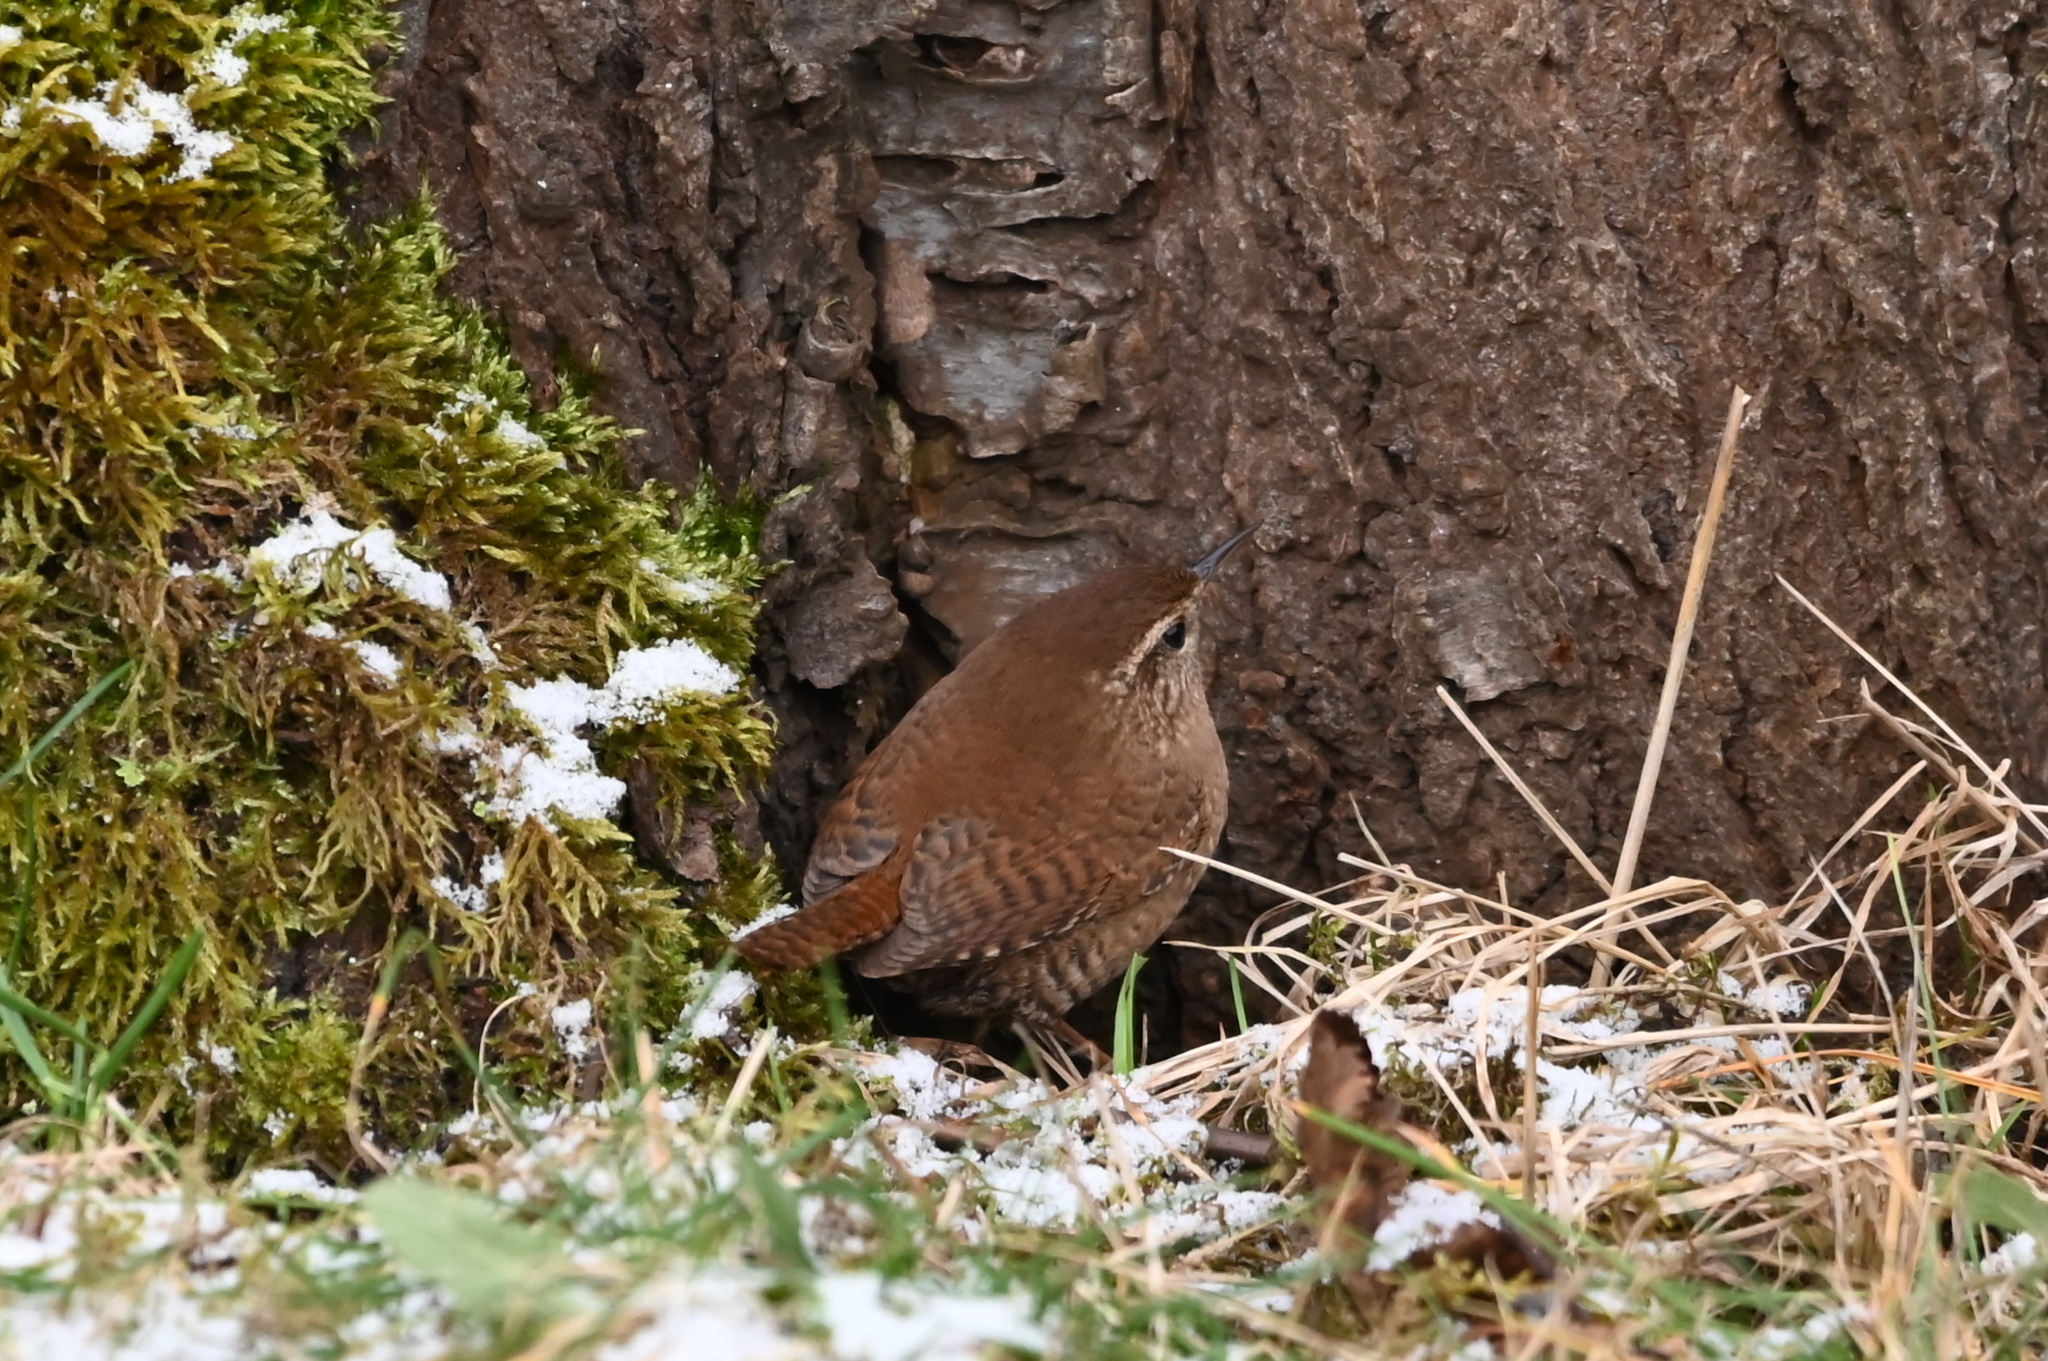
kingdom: Animalia
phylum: Chordata
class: Aves
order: Passeriformes
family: Troglodytidae
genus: Troglodytes
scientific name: Troglodytes troglodytes
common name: Eurasian wren
